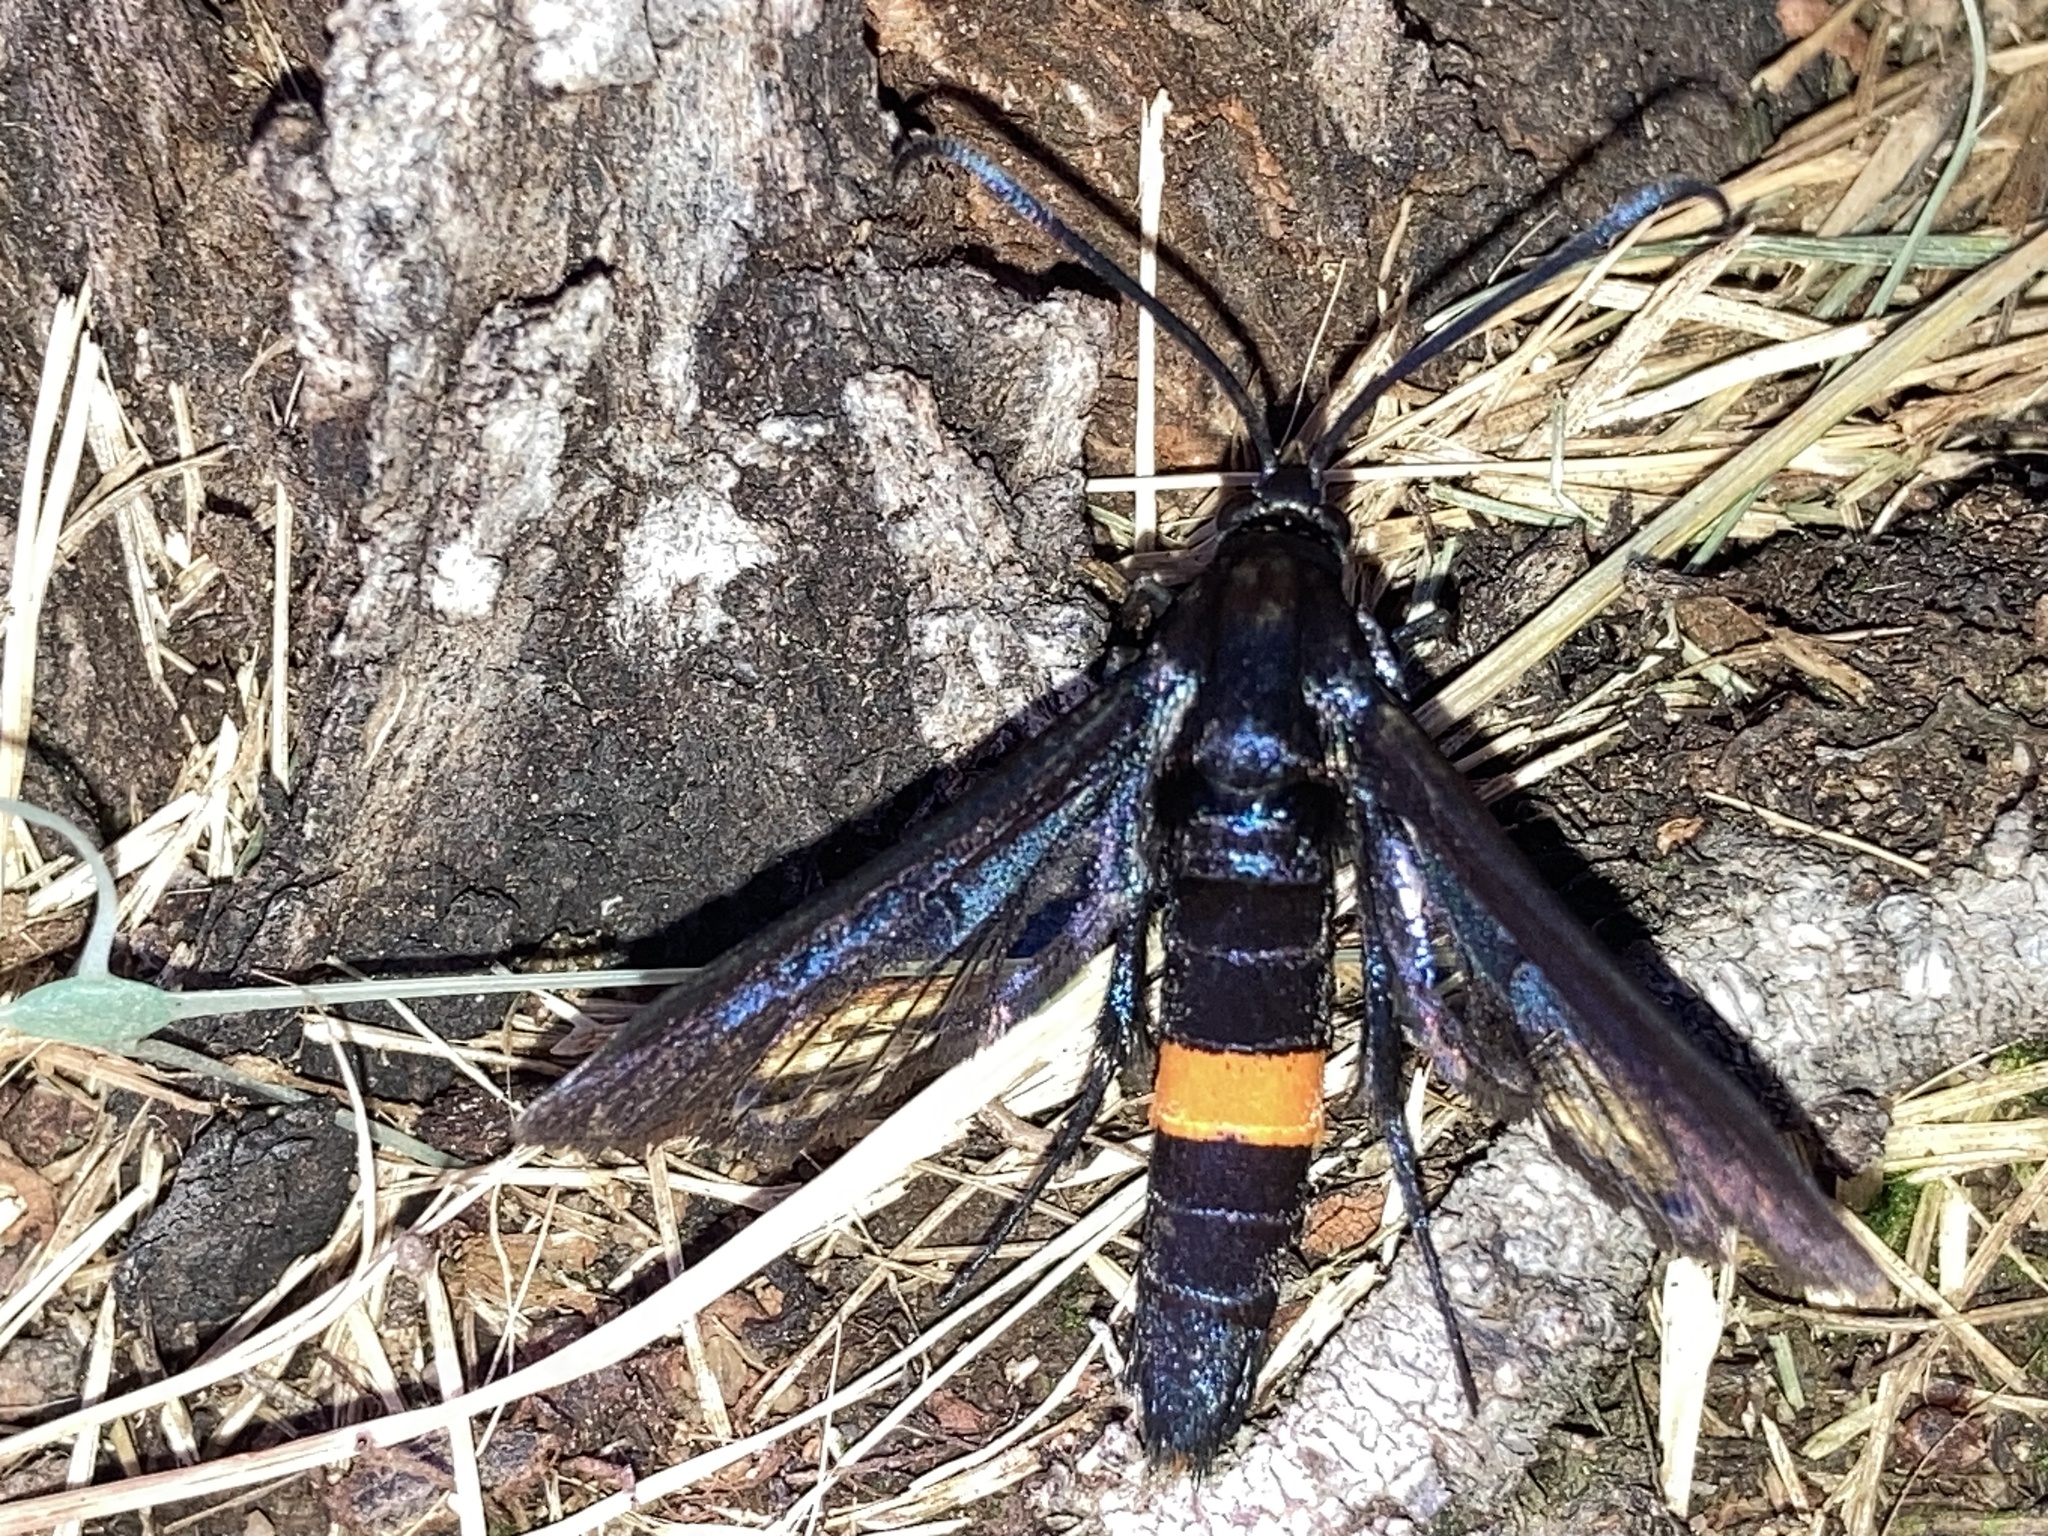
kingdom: Animalia
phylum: Arthropoda
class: Insecta
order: Lepidoptera
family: Sesiidae
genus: Synanthedon
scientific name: Synanthedon exitiosa
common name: Peachtree borer moth
